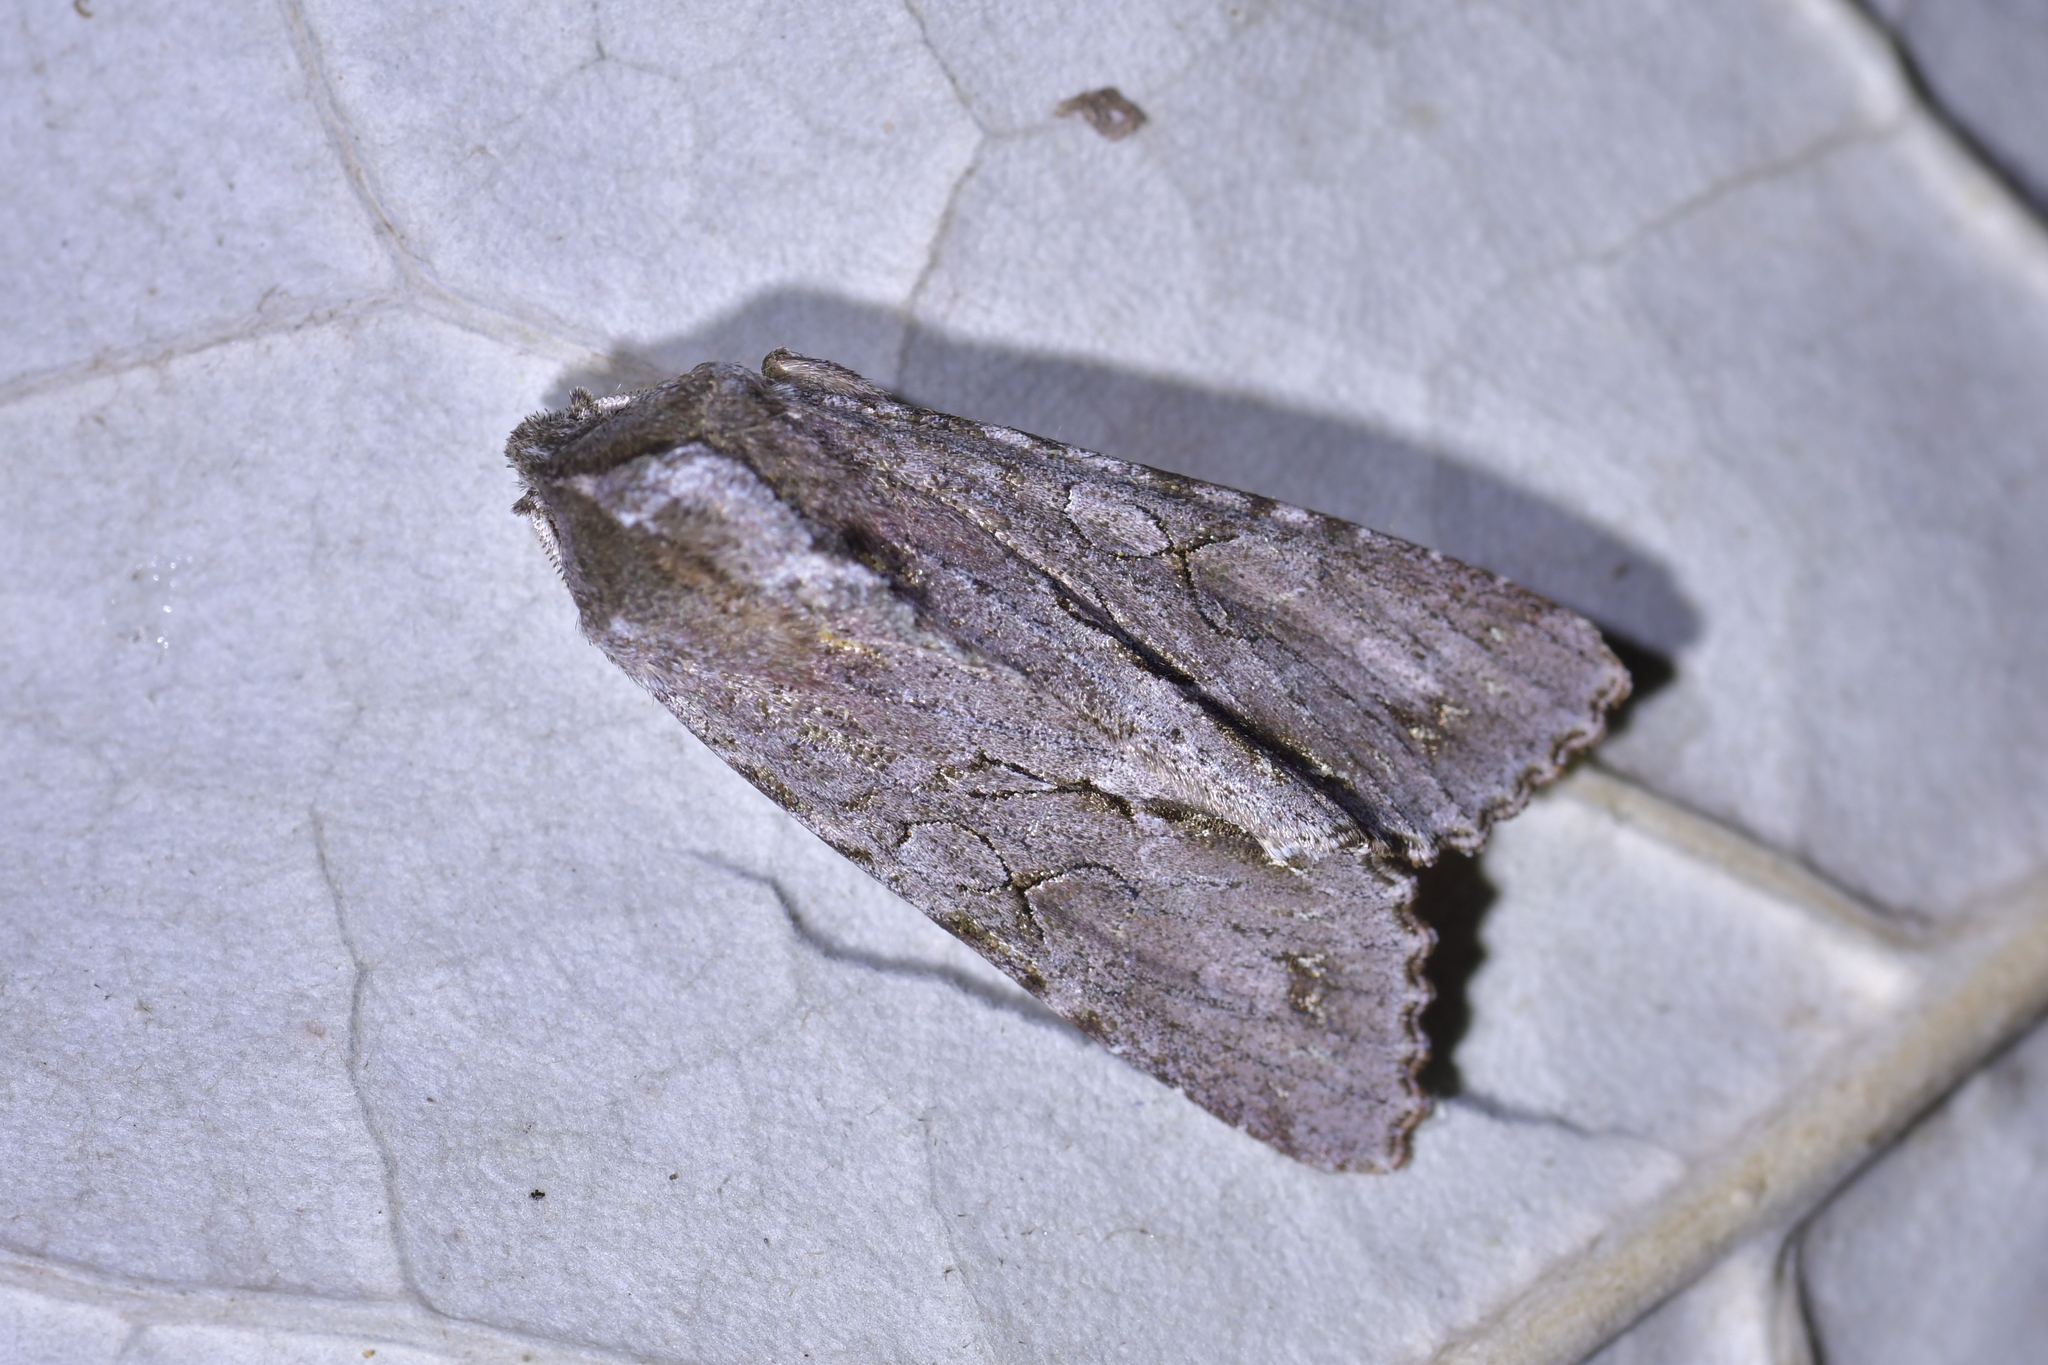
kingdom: Animalia
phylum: Arthropoda
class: Insecta
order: Lepidoptera
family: Noctuidae
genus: Ichneutica
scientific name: Ichneutica
